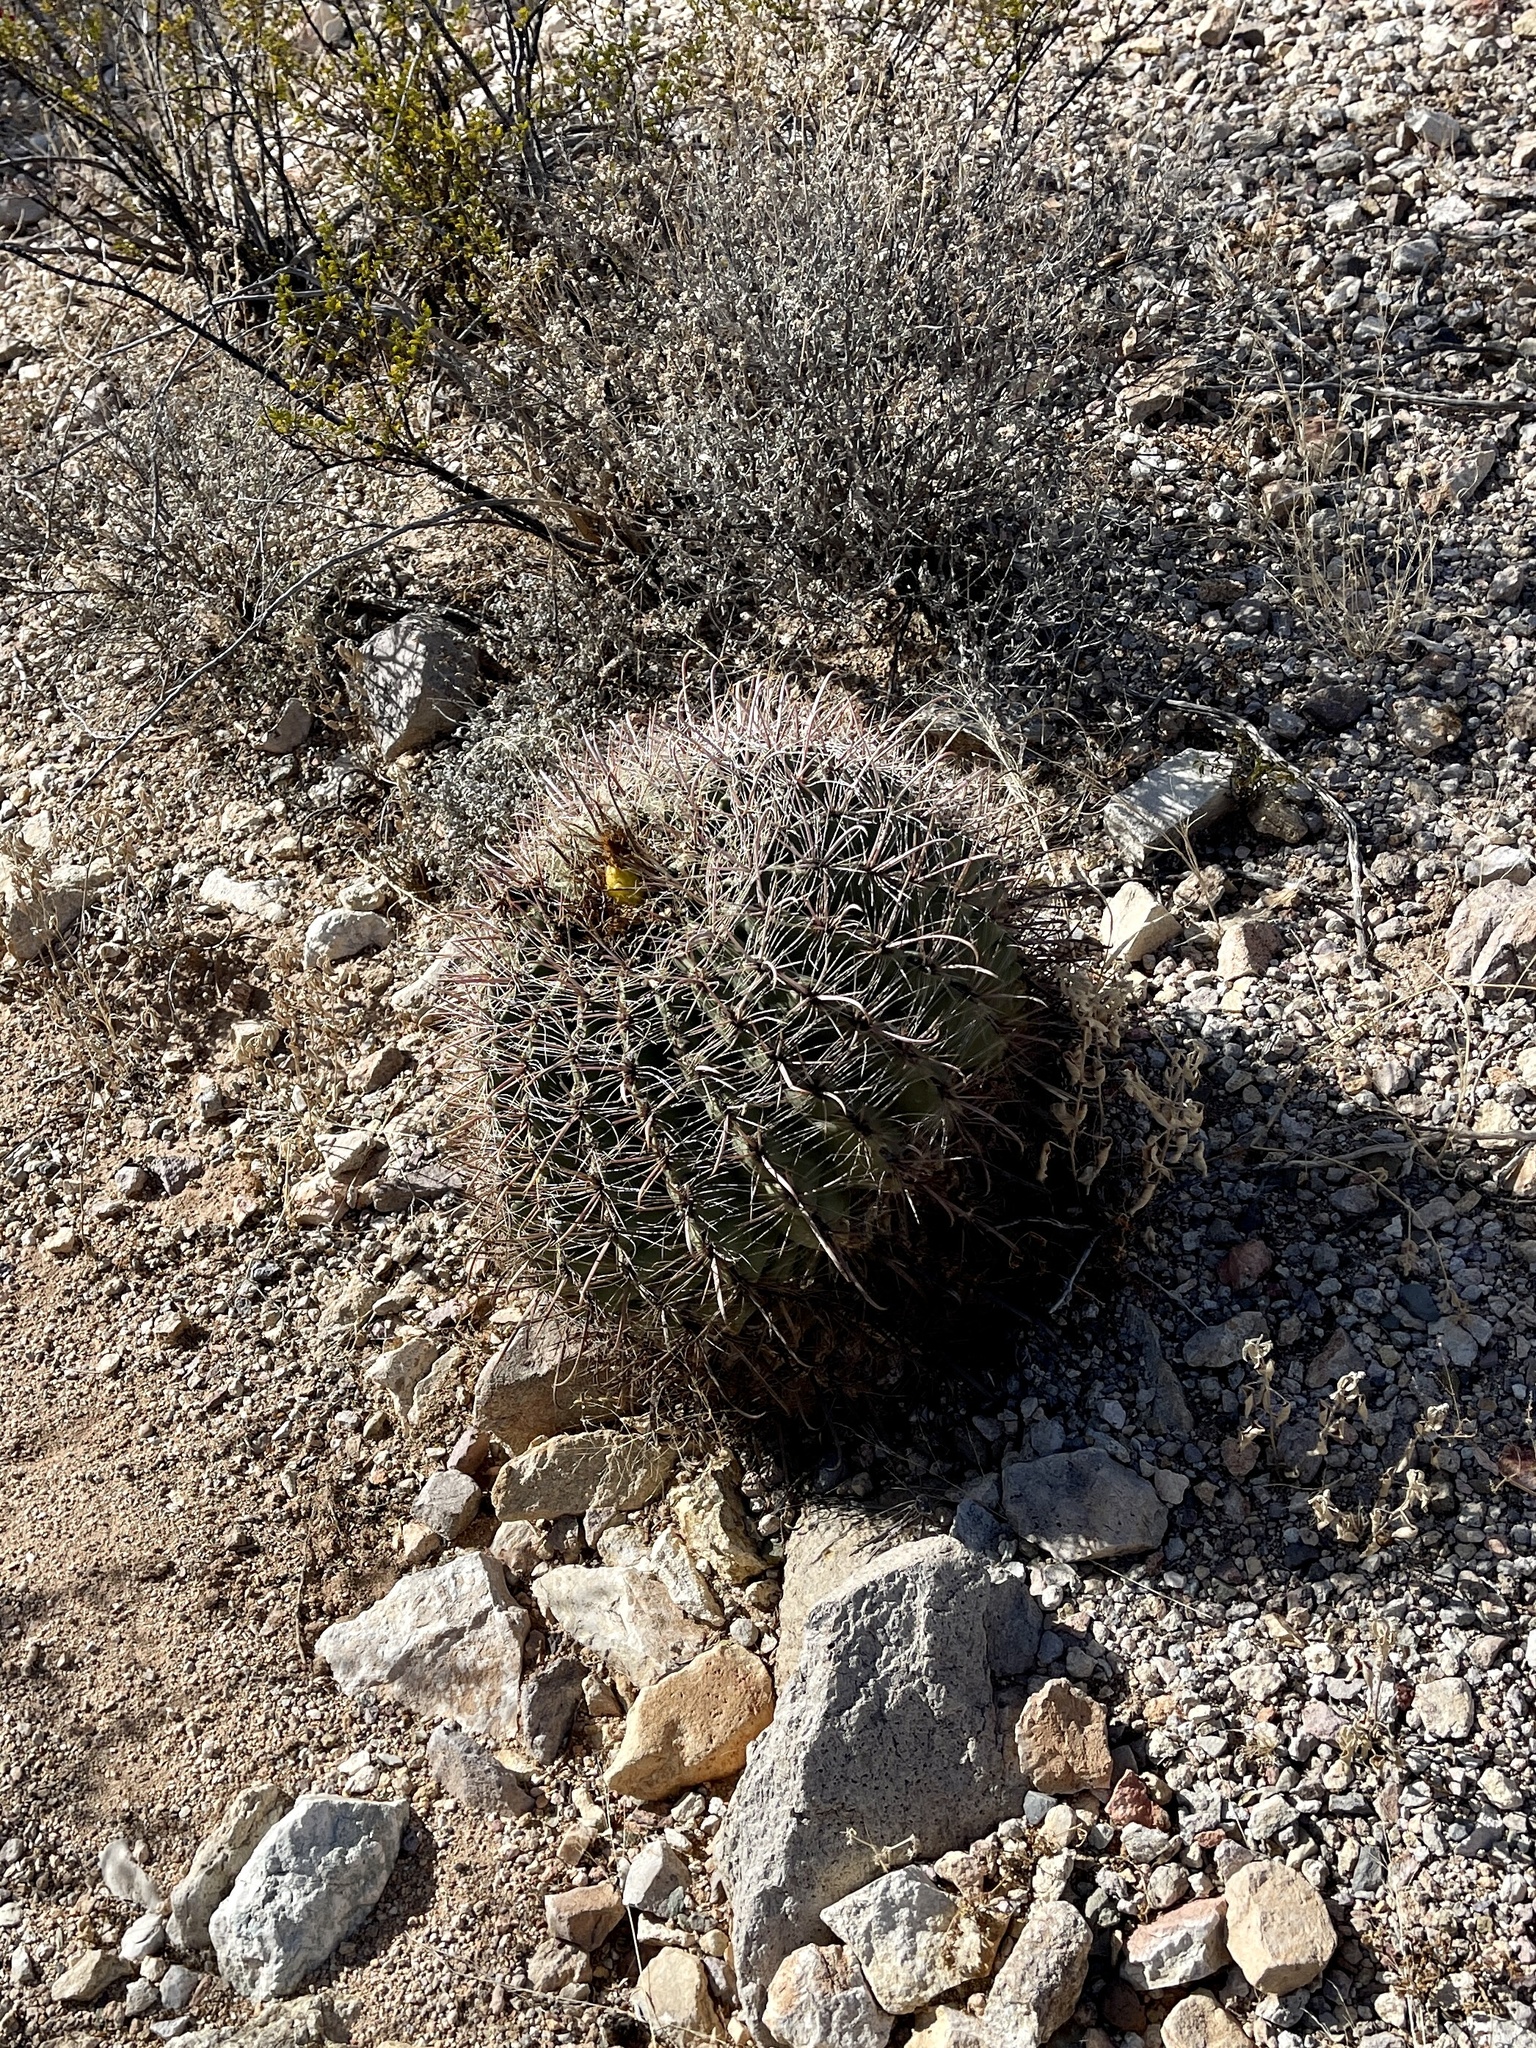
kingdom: Plantae
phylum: Tracheophyta
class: Magnoliopsida
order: Caryophyllales
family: Cactaceae
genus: Ferocactus
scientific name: Ferocactus wislizeni
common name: Candy barrel cactus
